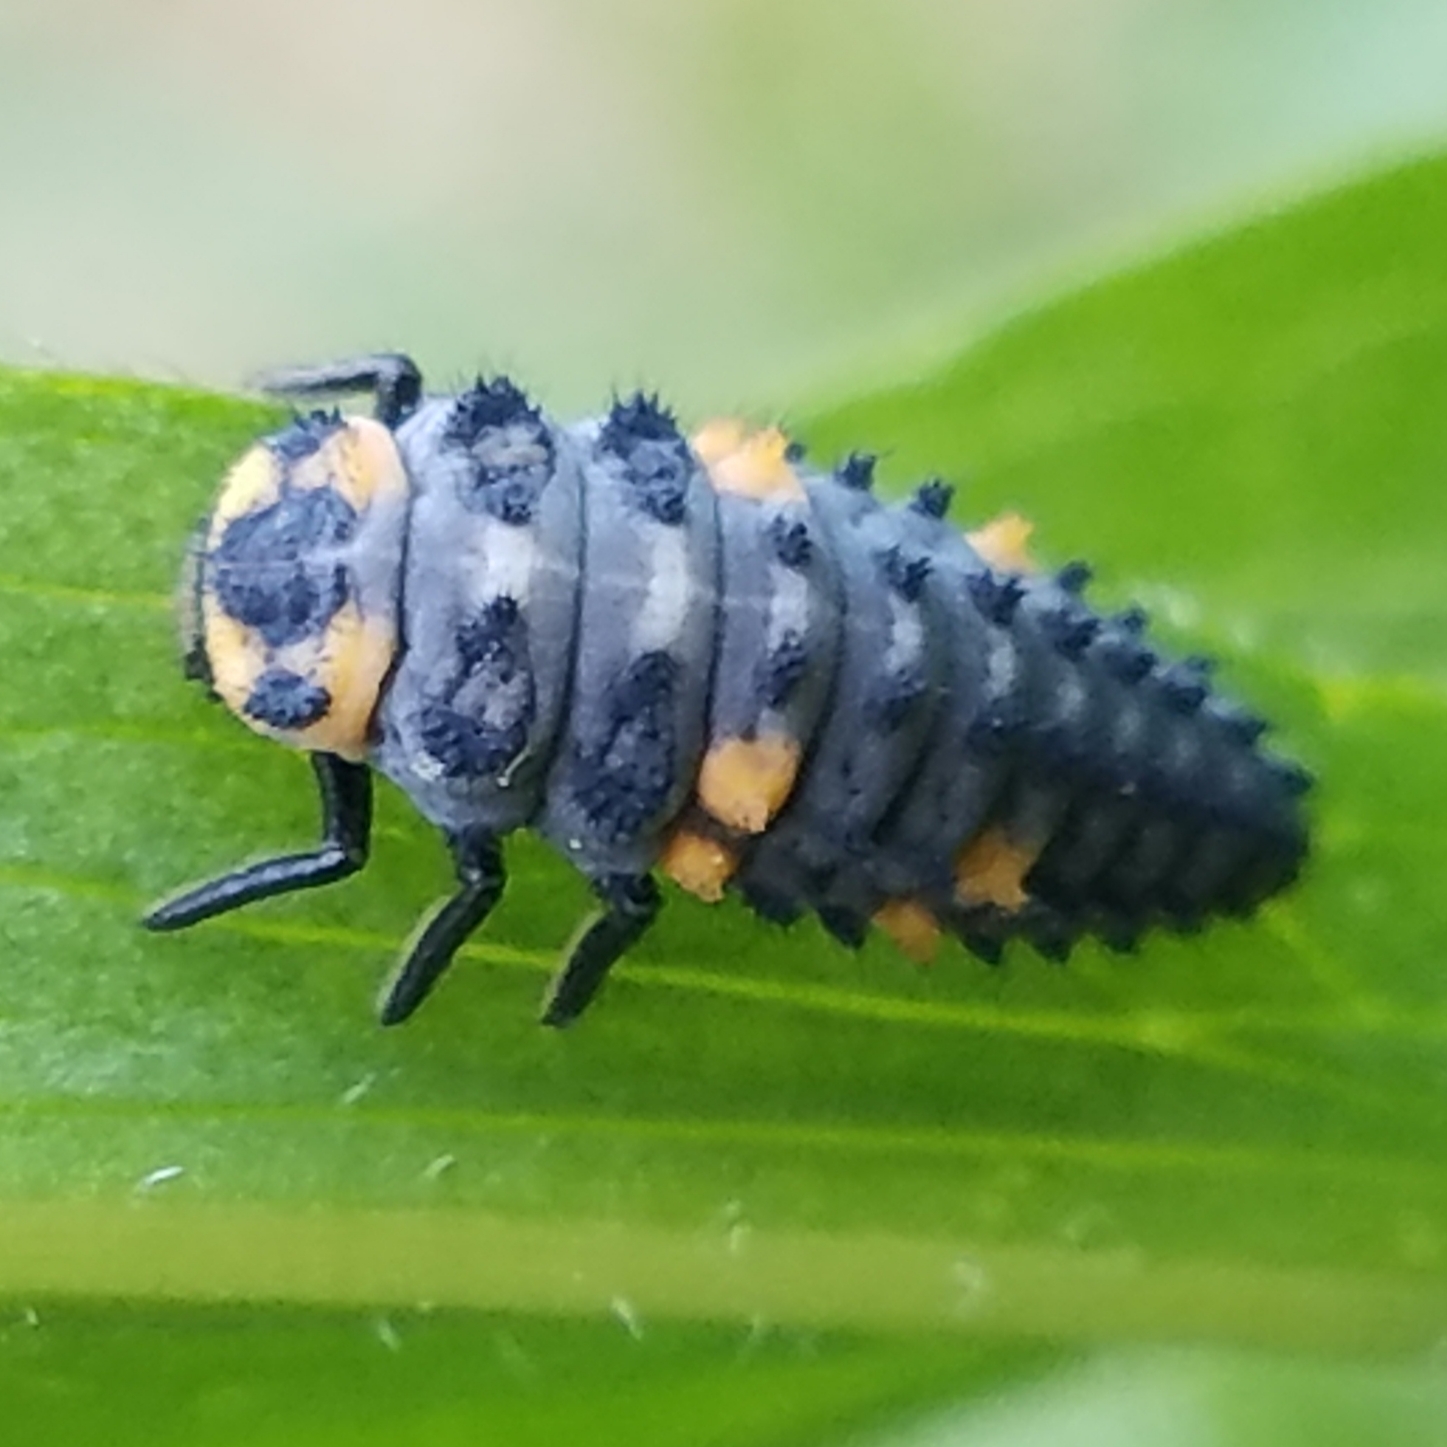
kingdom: Animalia
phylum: Arthropoda
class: Insecta
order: Coleoptera
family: Coccinellidae
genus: Coccinella
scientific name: Coccinella septempunctata
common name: Sevenspotted lady beetle
